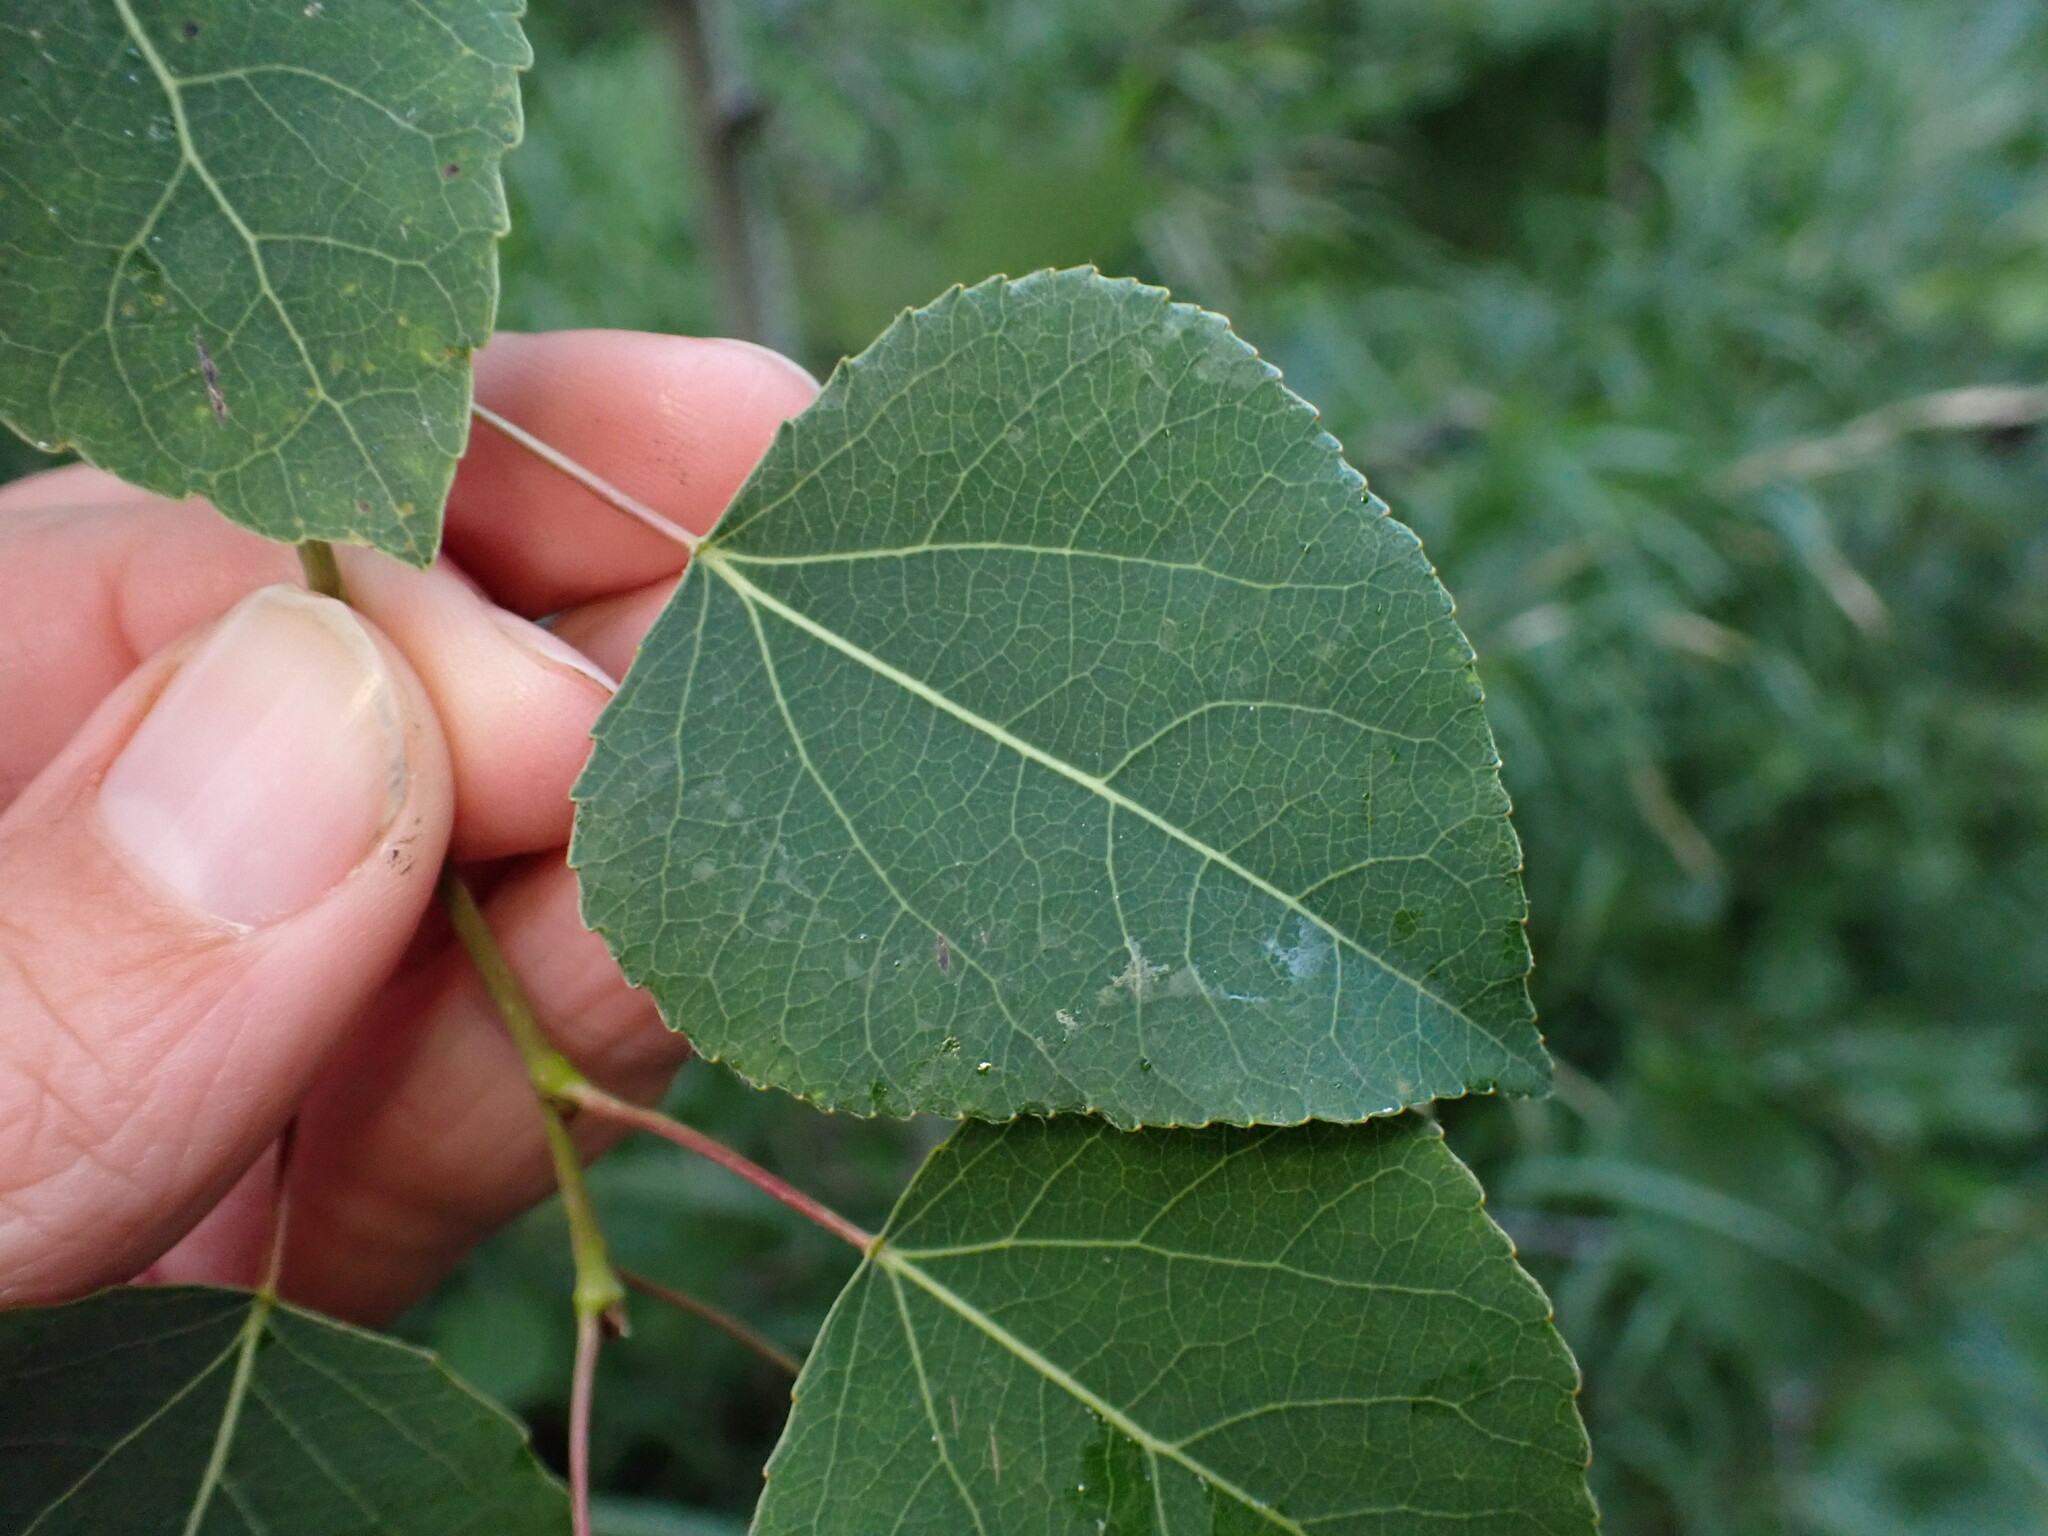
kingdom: Plantae
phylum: Tracheophyta
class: Magnoliopsida
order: Malpighiales
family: Salicaceae
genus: Populus
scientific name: Populus tremuloides
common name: Quaking aspen
